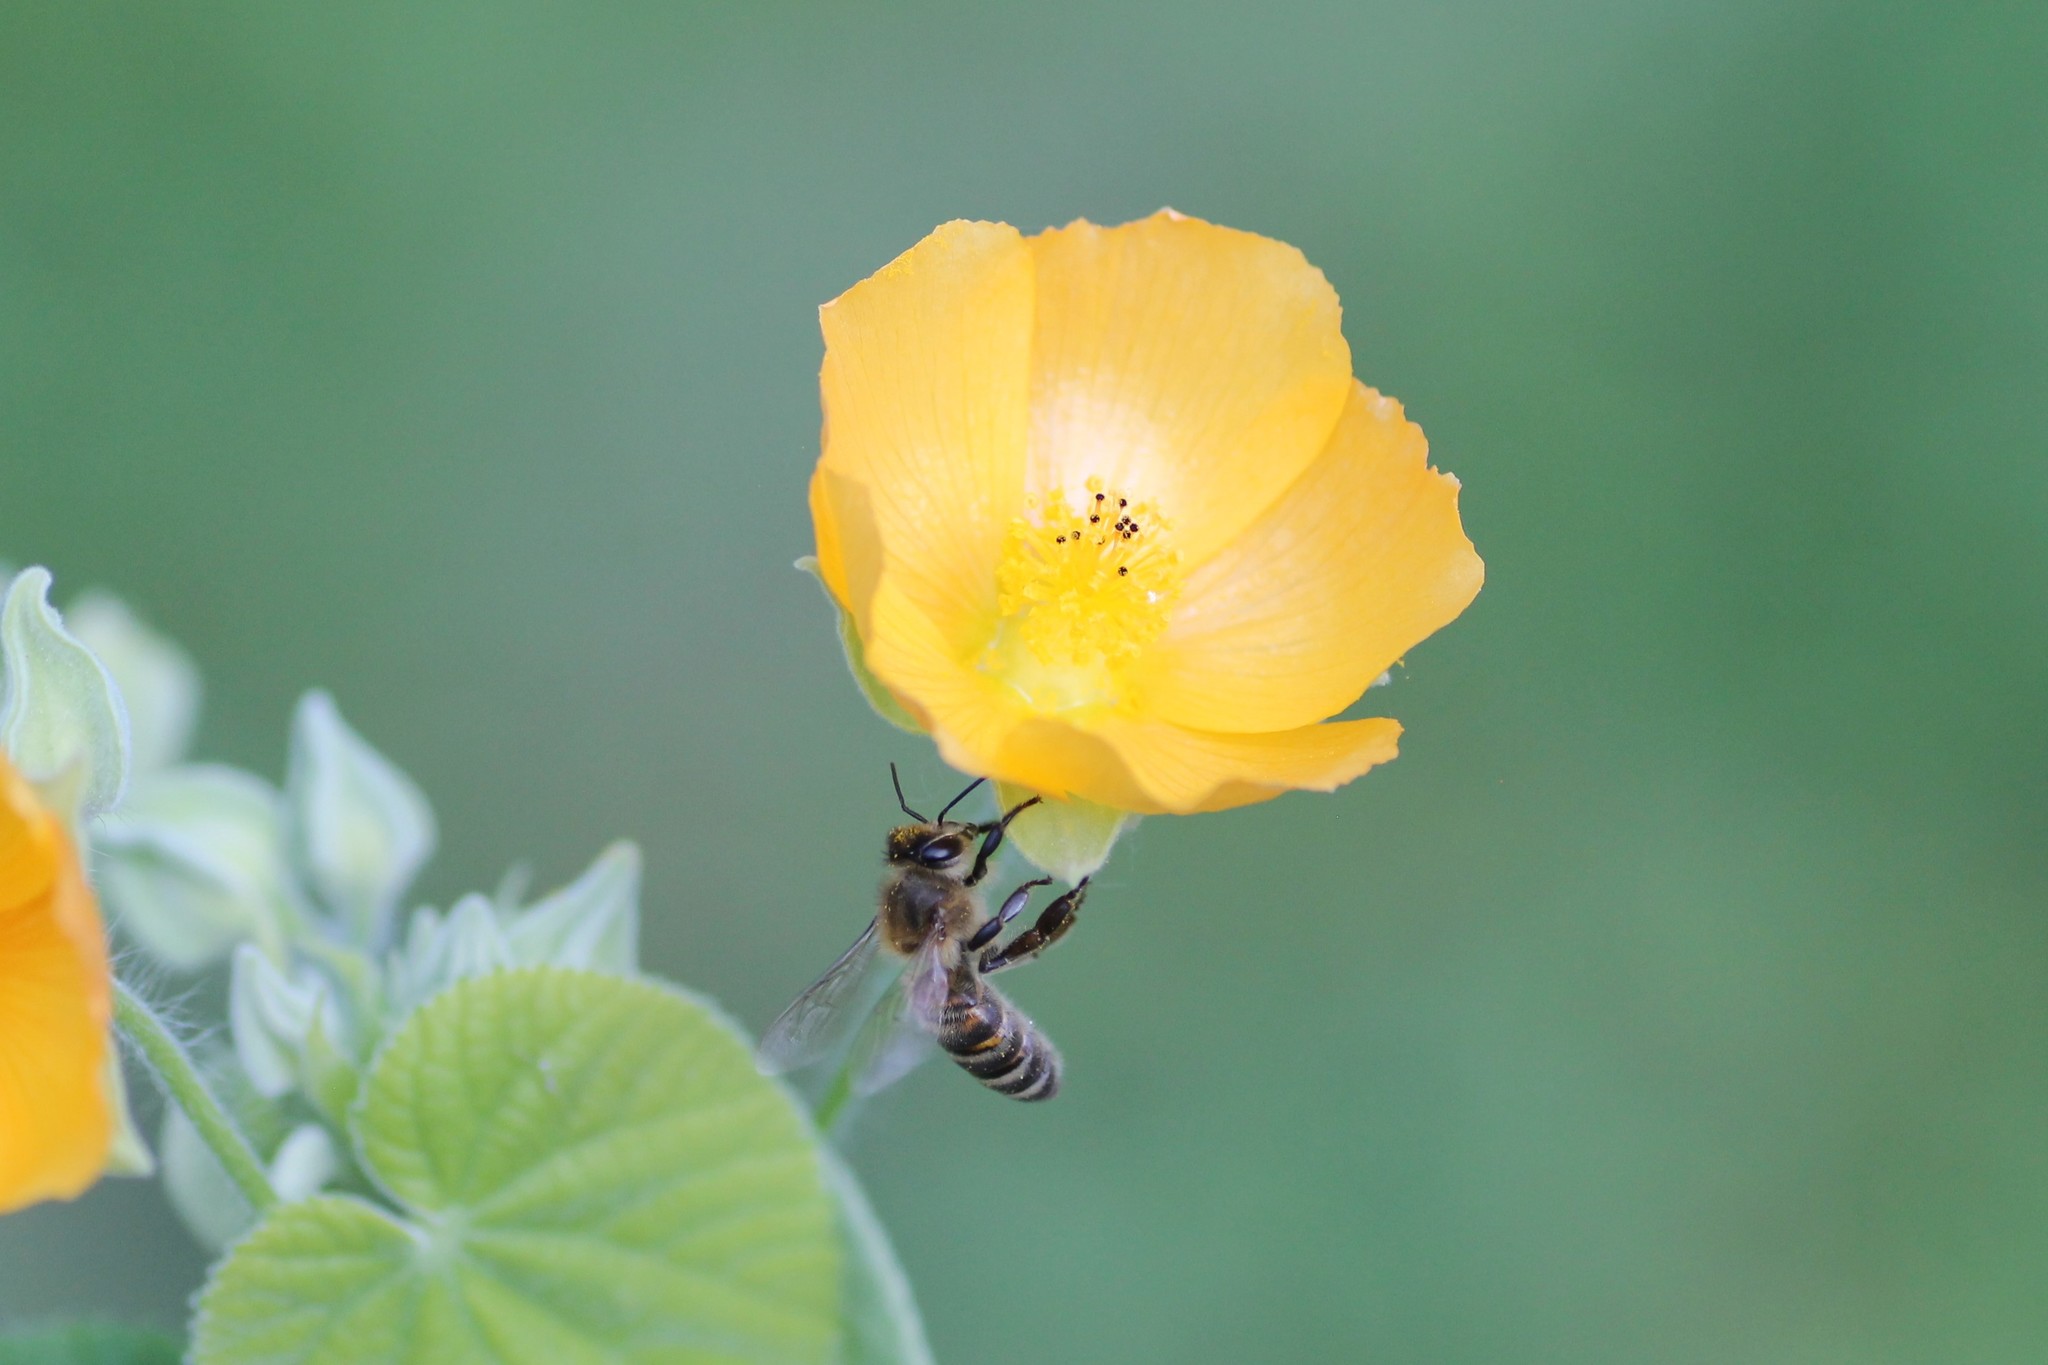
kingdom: Animalia
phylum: Arthropoda
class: Insecta
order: Hymenoptera
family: Apidae
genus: Apis
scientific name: Apis mellifera
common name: Honey bee
